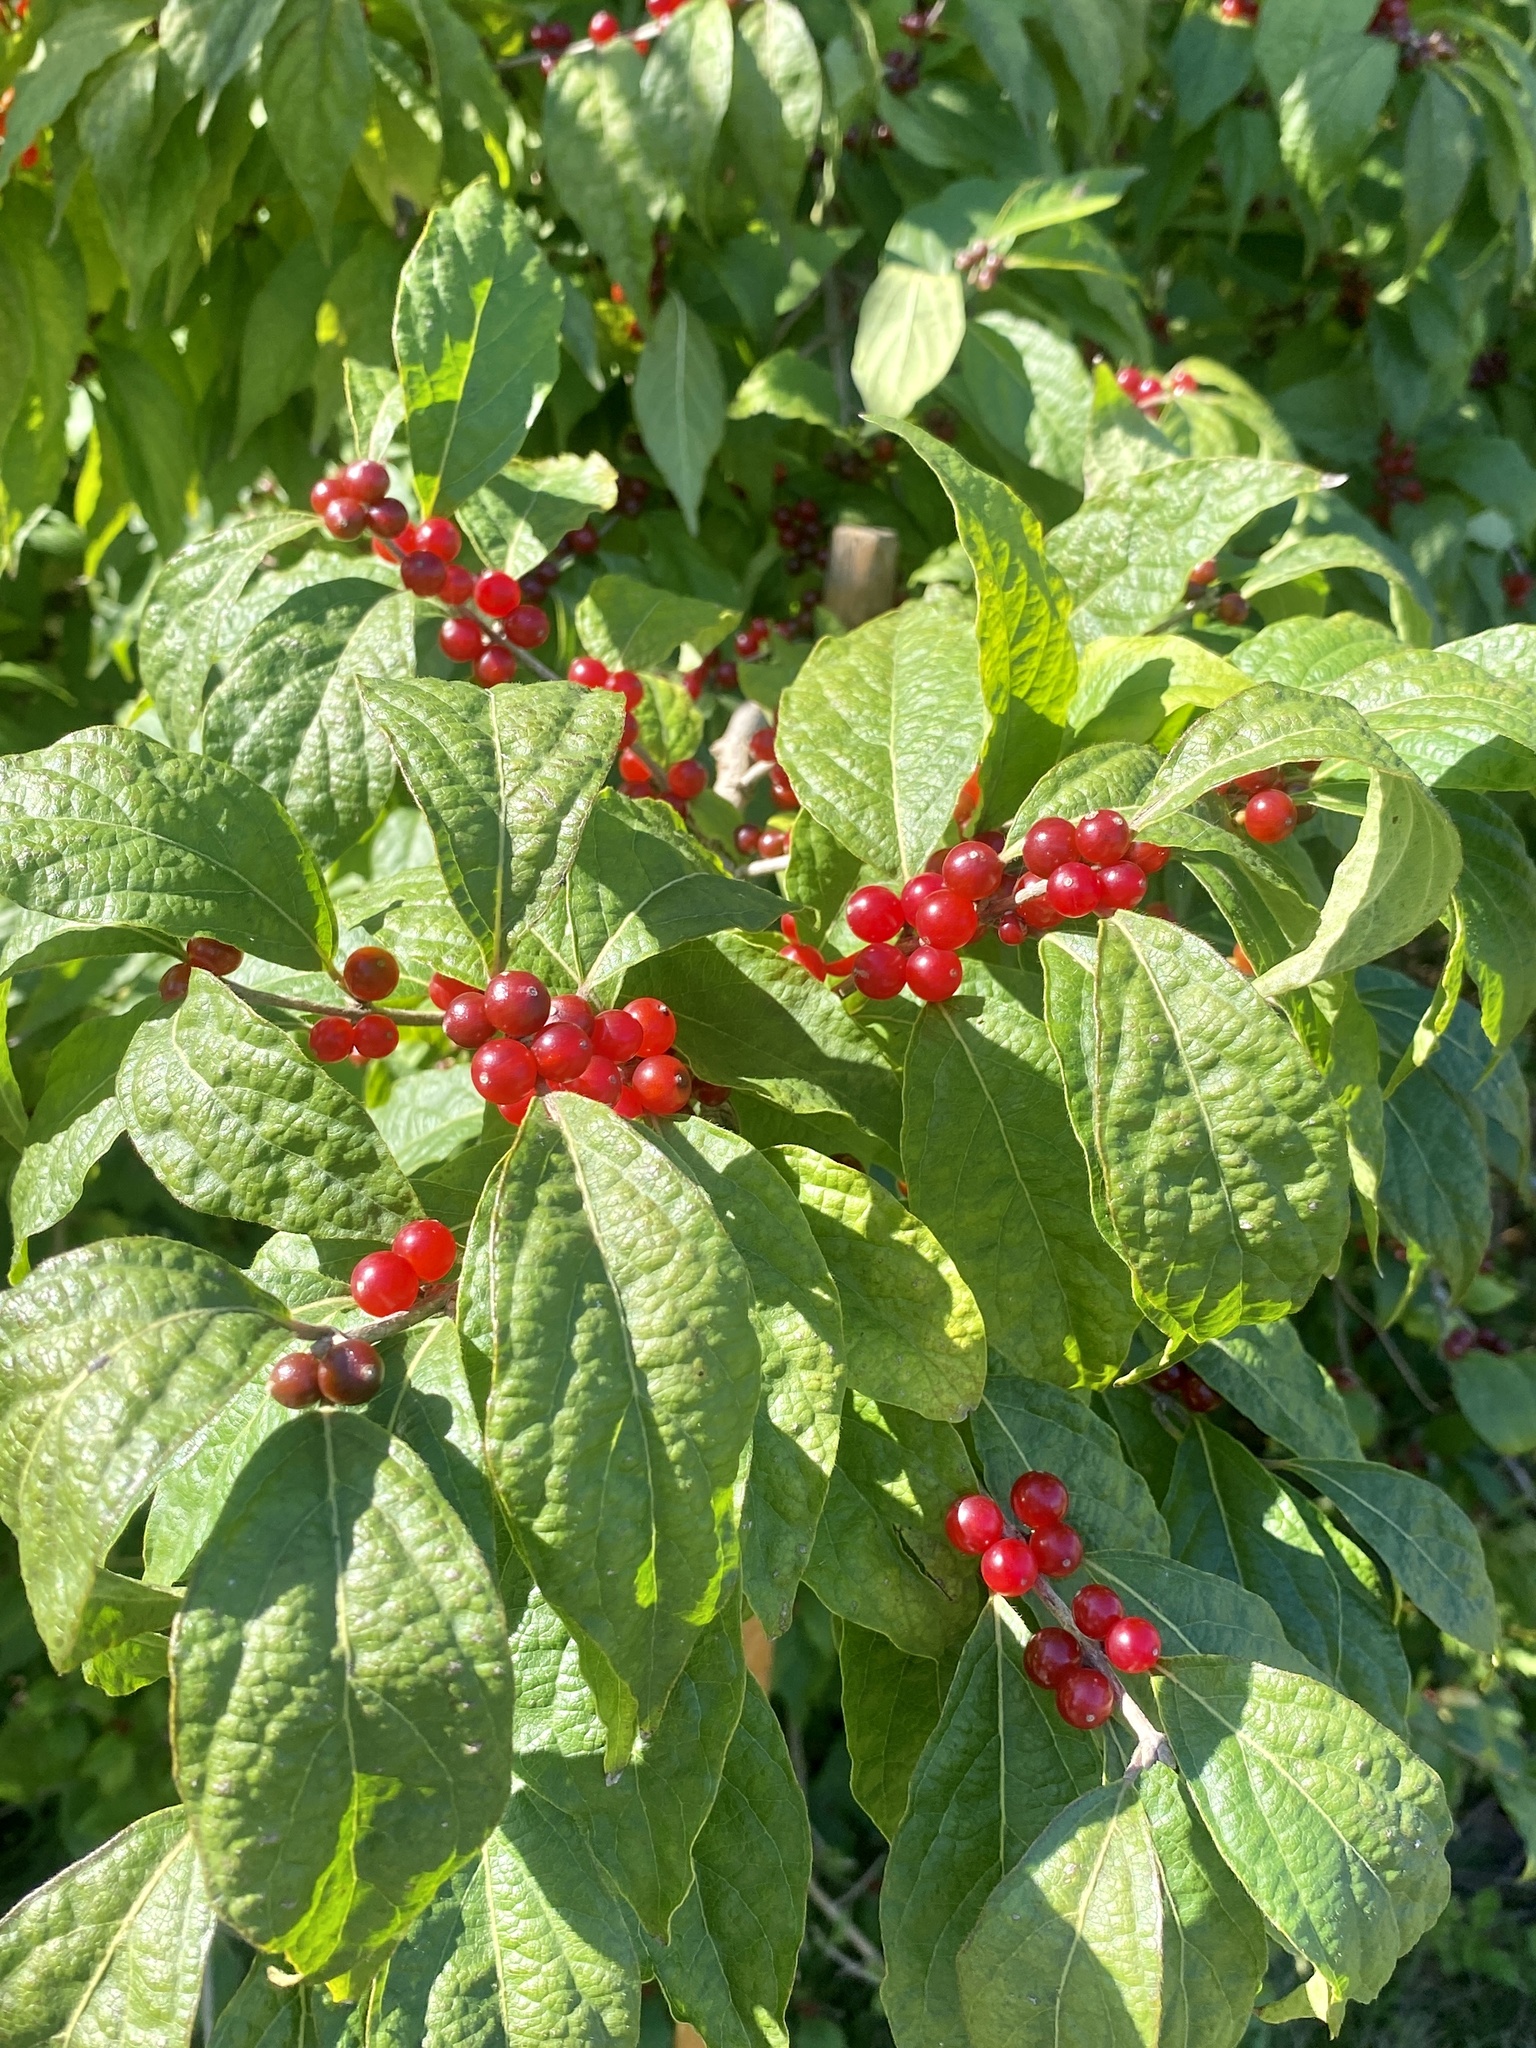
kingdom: Plantae
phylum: Tracheophyta
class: Magnoliopsida
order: Dipsacales
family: Caprifoliaceae
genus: Lonicera
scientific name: Lonicera maackii
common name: Amur honeysuckle
